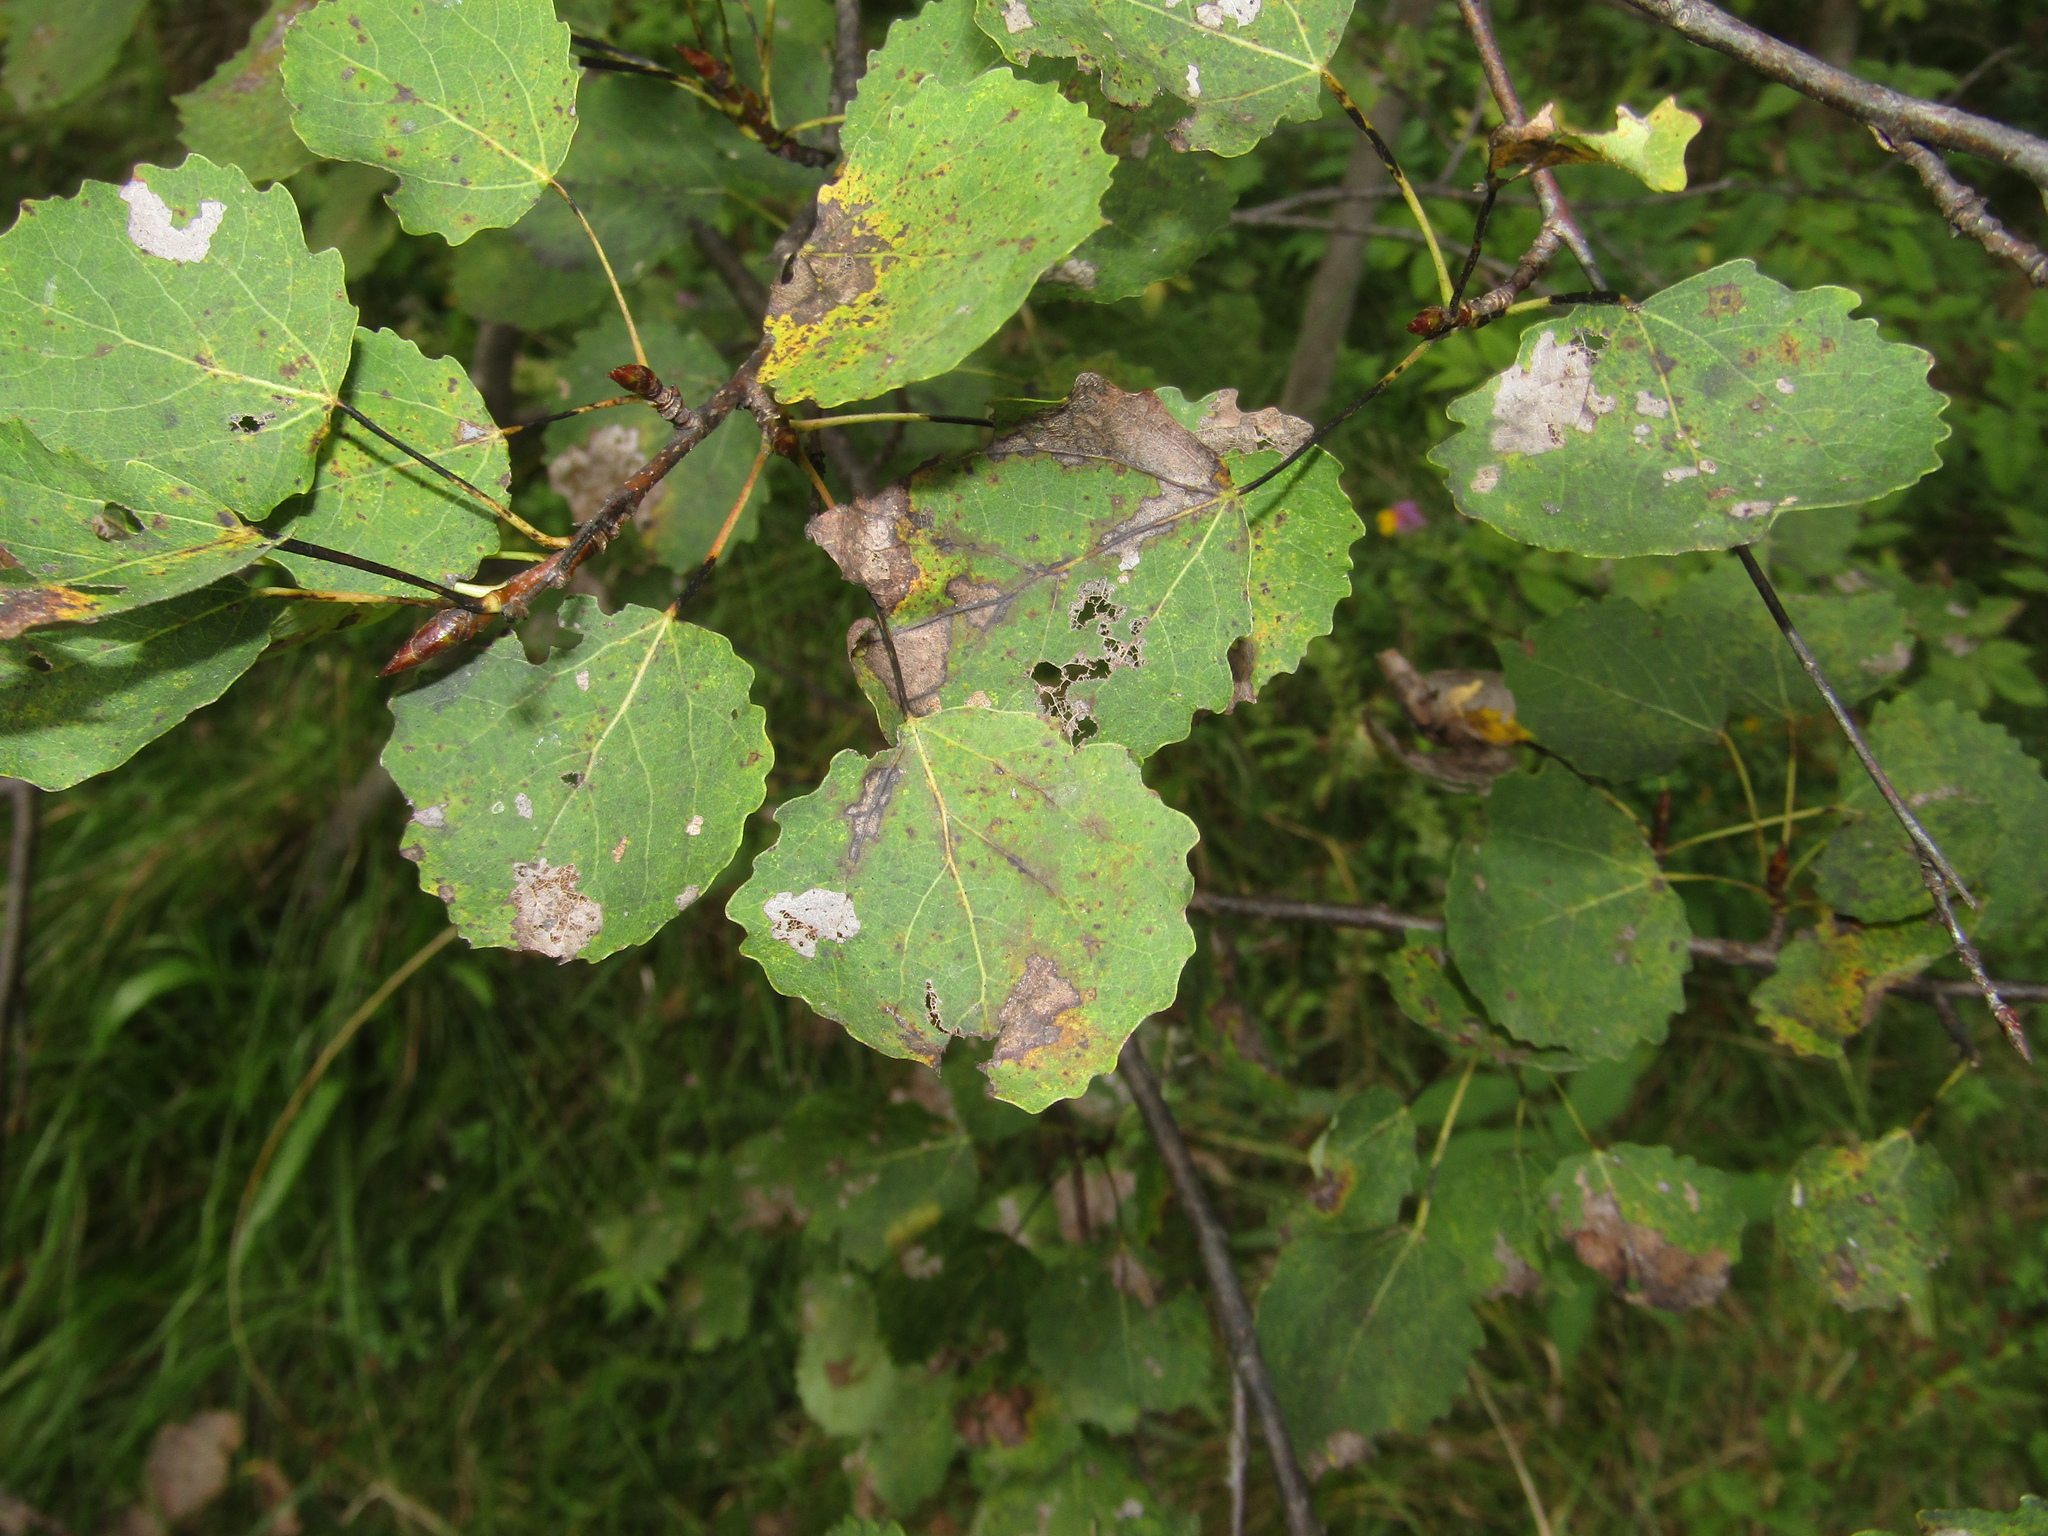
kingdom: Plantae
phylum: Tracheophyta
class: Magnoliopsida
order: Malpighiales
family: Salicaceae
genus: Populus
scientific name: Populus tremula
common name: European aspen
